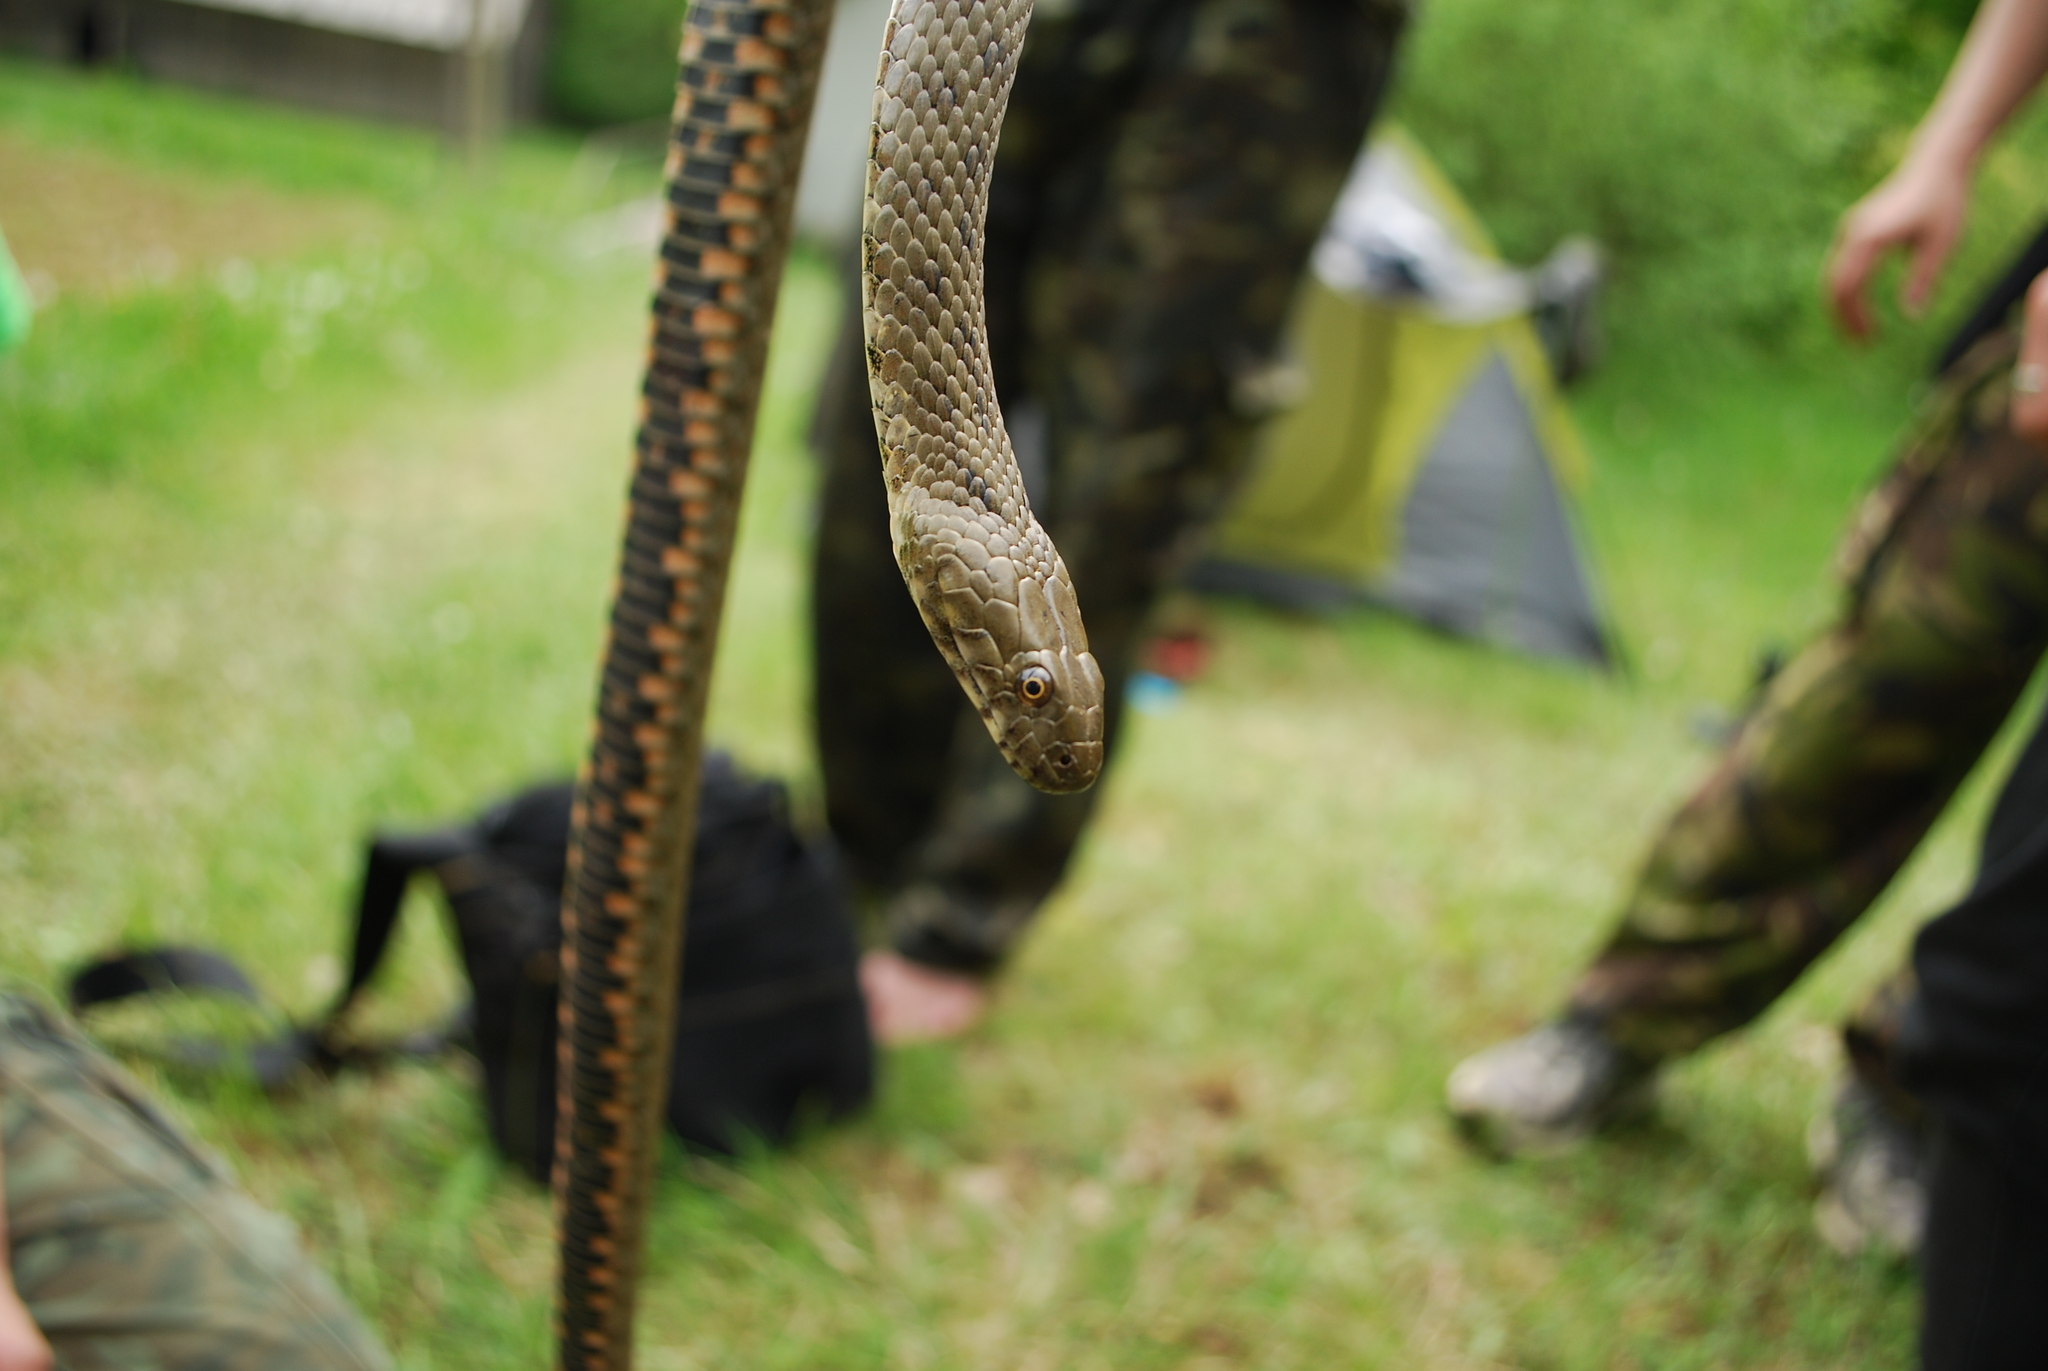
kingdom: Animalia
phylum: Chordata
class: Squamata
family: Colubridae
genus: Natrix
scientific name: Natrix tessellata
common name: Dice snake
